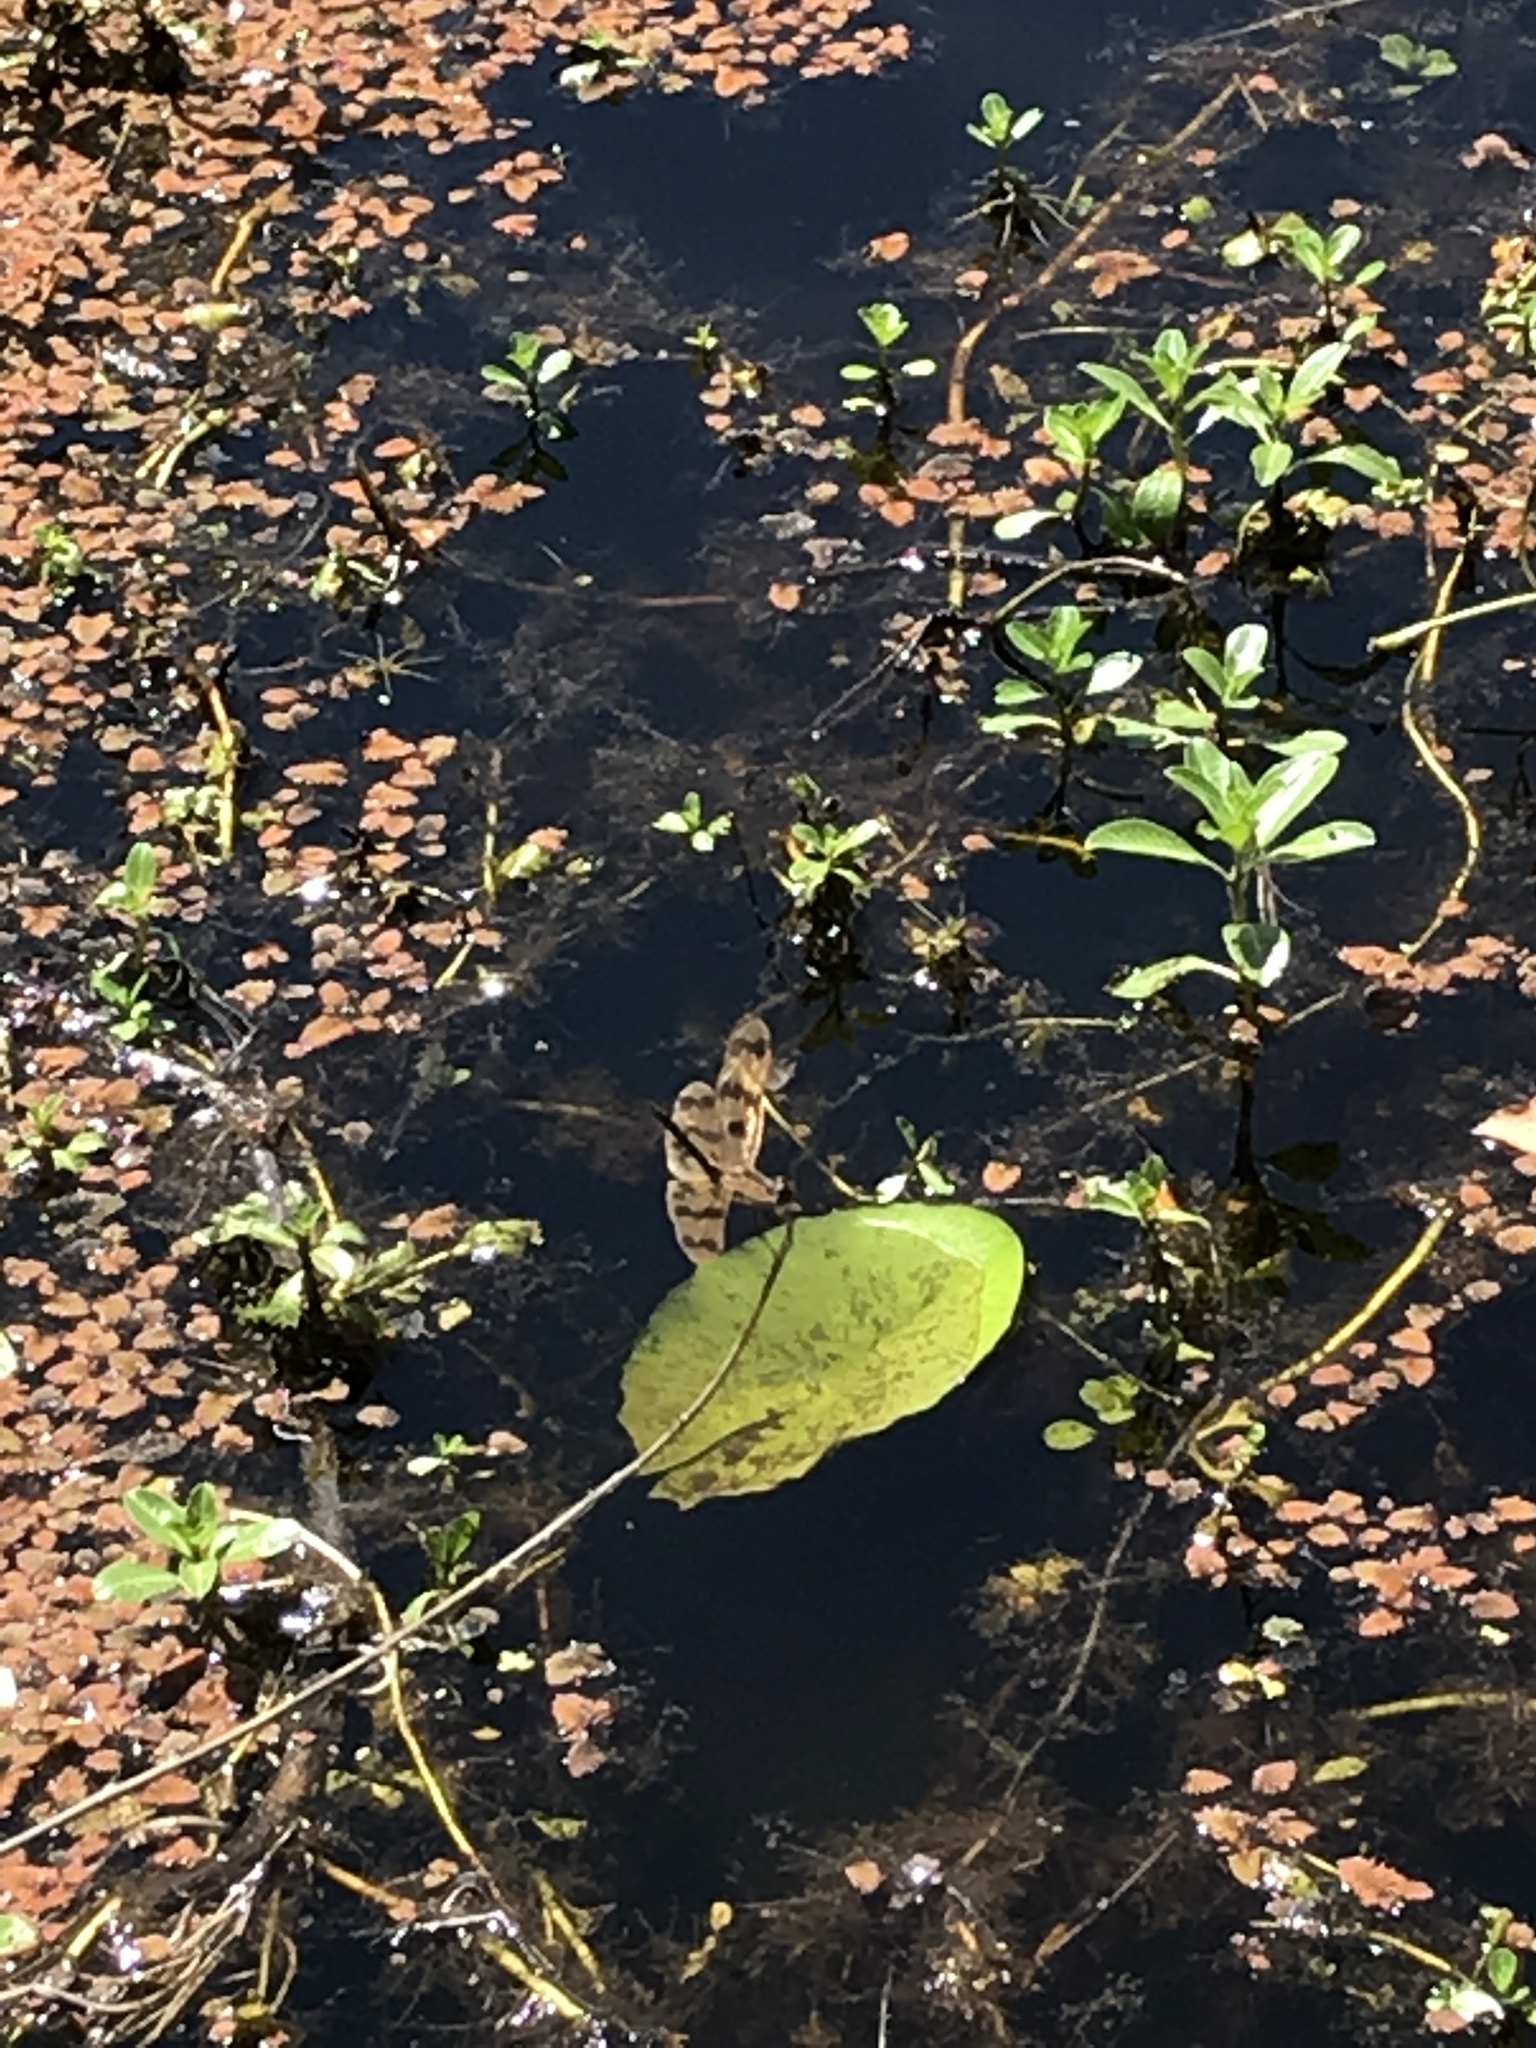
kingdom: Animalia
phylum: Arthropoda
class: Insecta
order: Odonata
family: Libellulidae
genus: Rhyothemis
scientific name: Rhyothemis graphiptera
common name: Graphic flutterer
